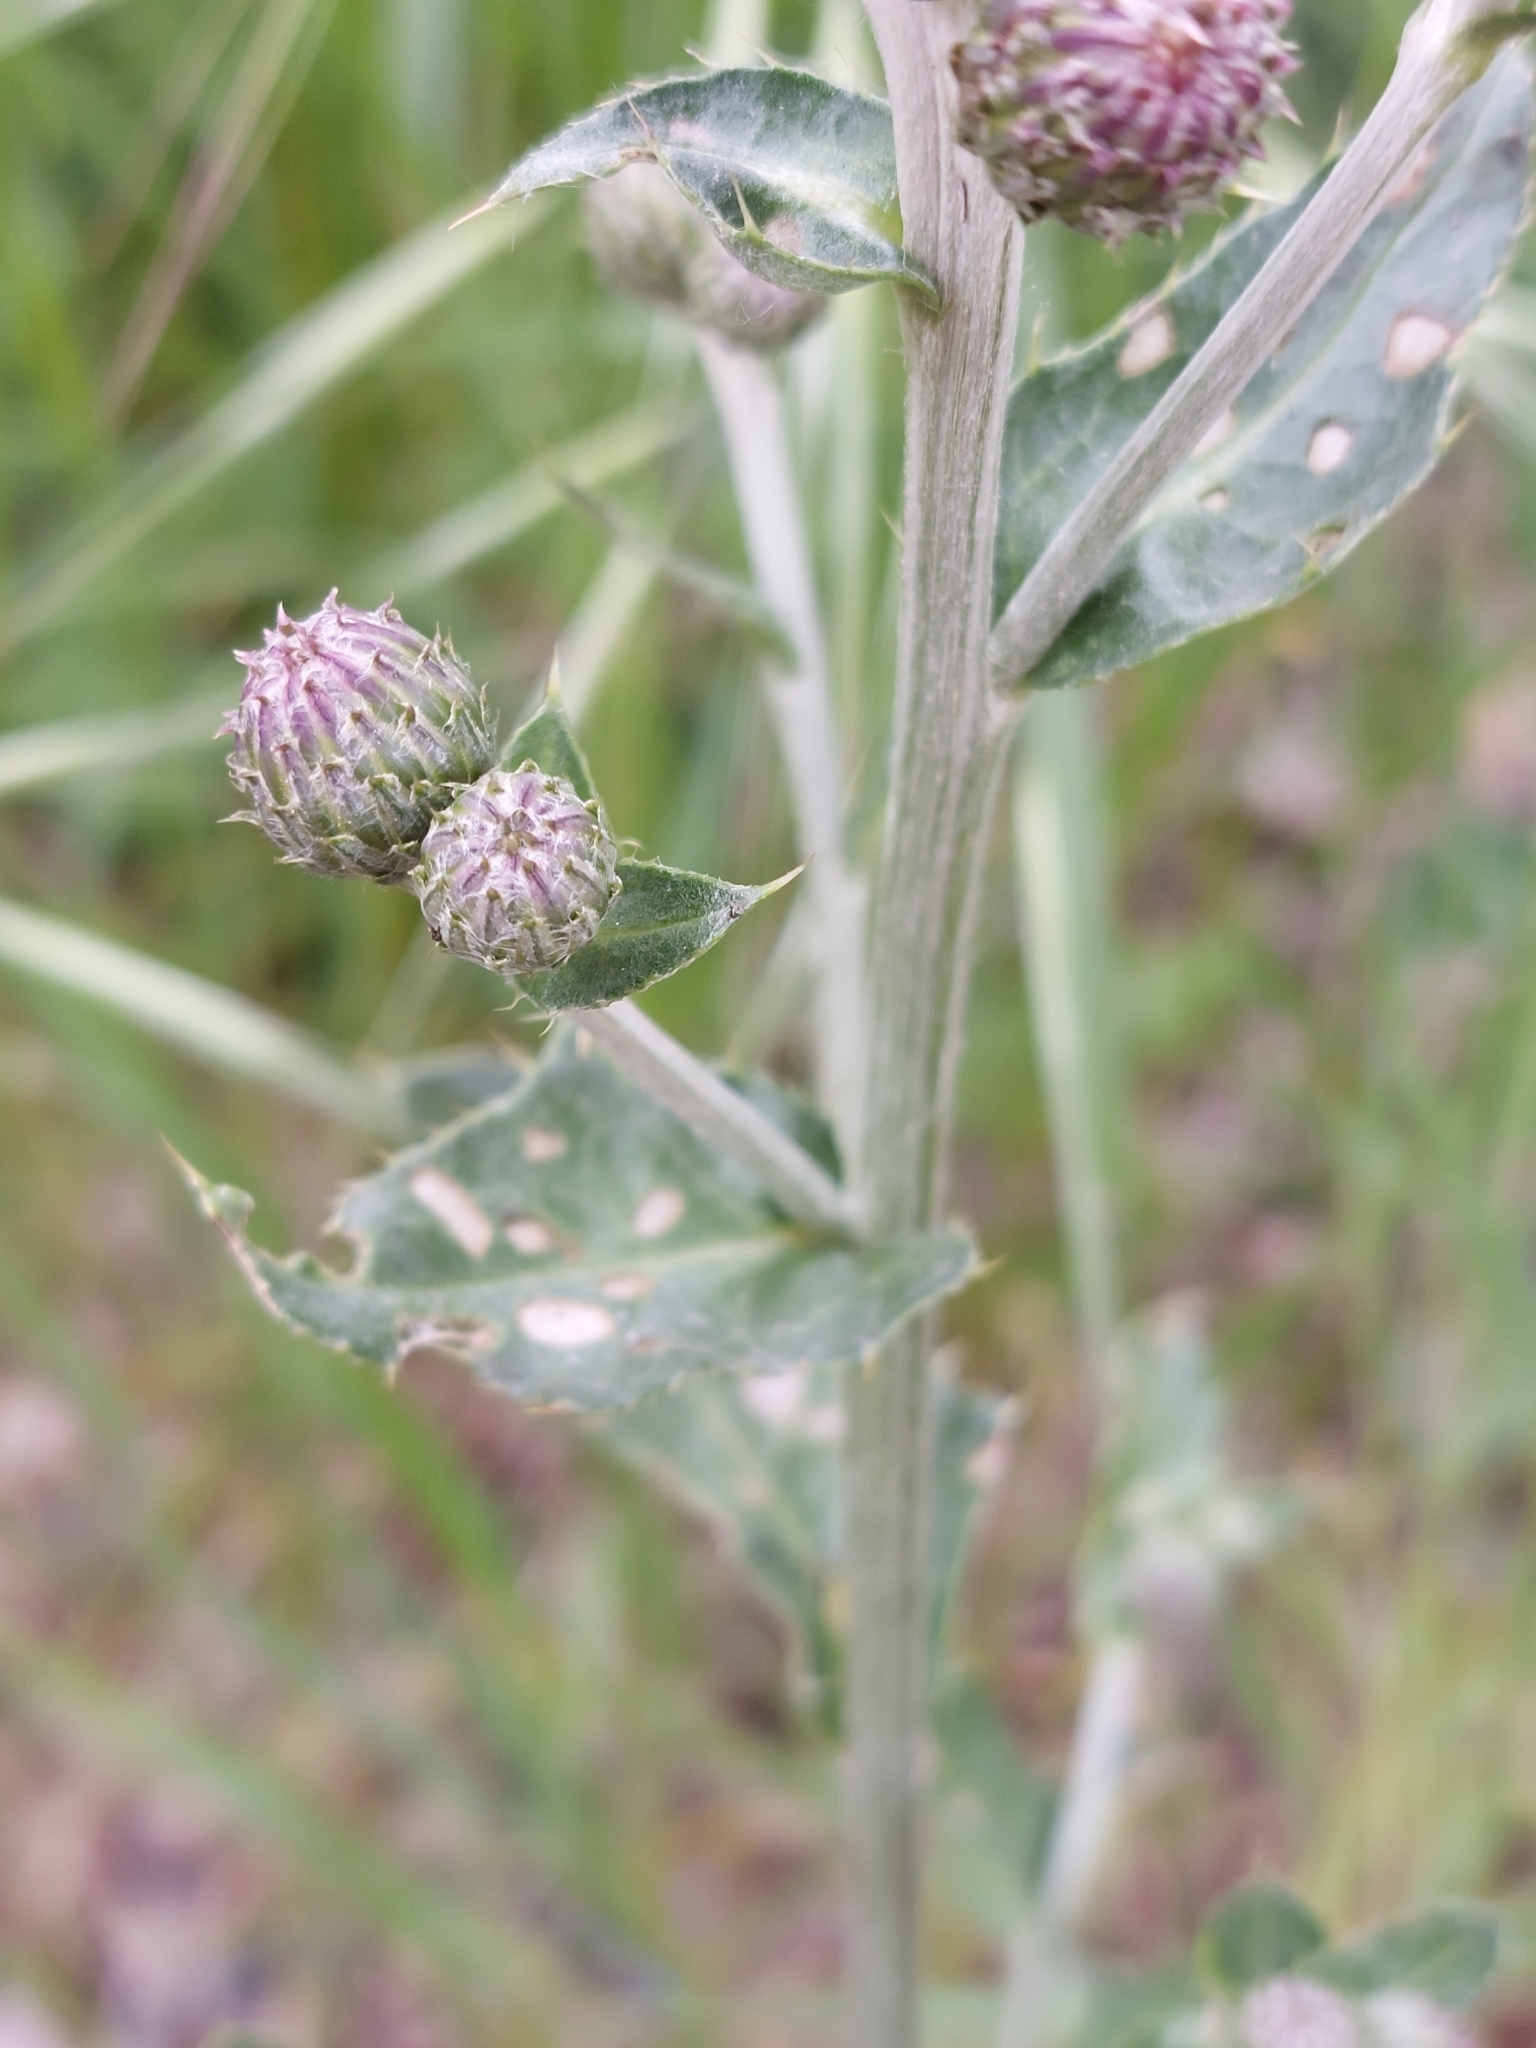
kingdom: Plantae
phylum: Tracheophyta
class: Magnoliopsida
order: Asterales
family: Asteraceae
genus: Cirsium
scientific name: Cirsium arvense
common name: Creeping thistle
